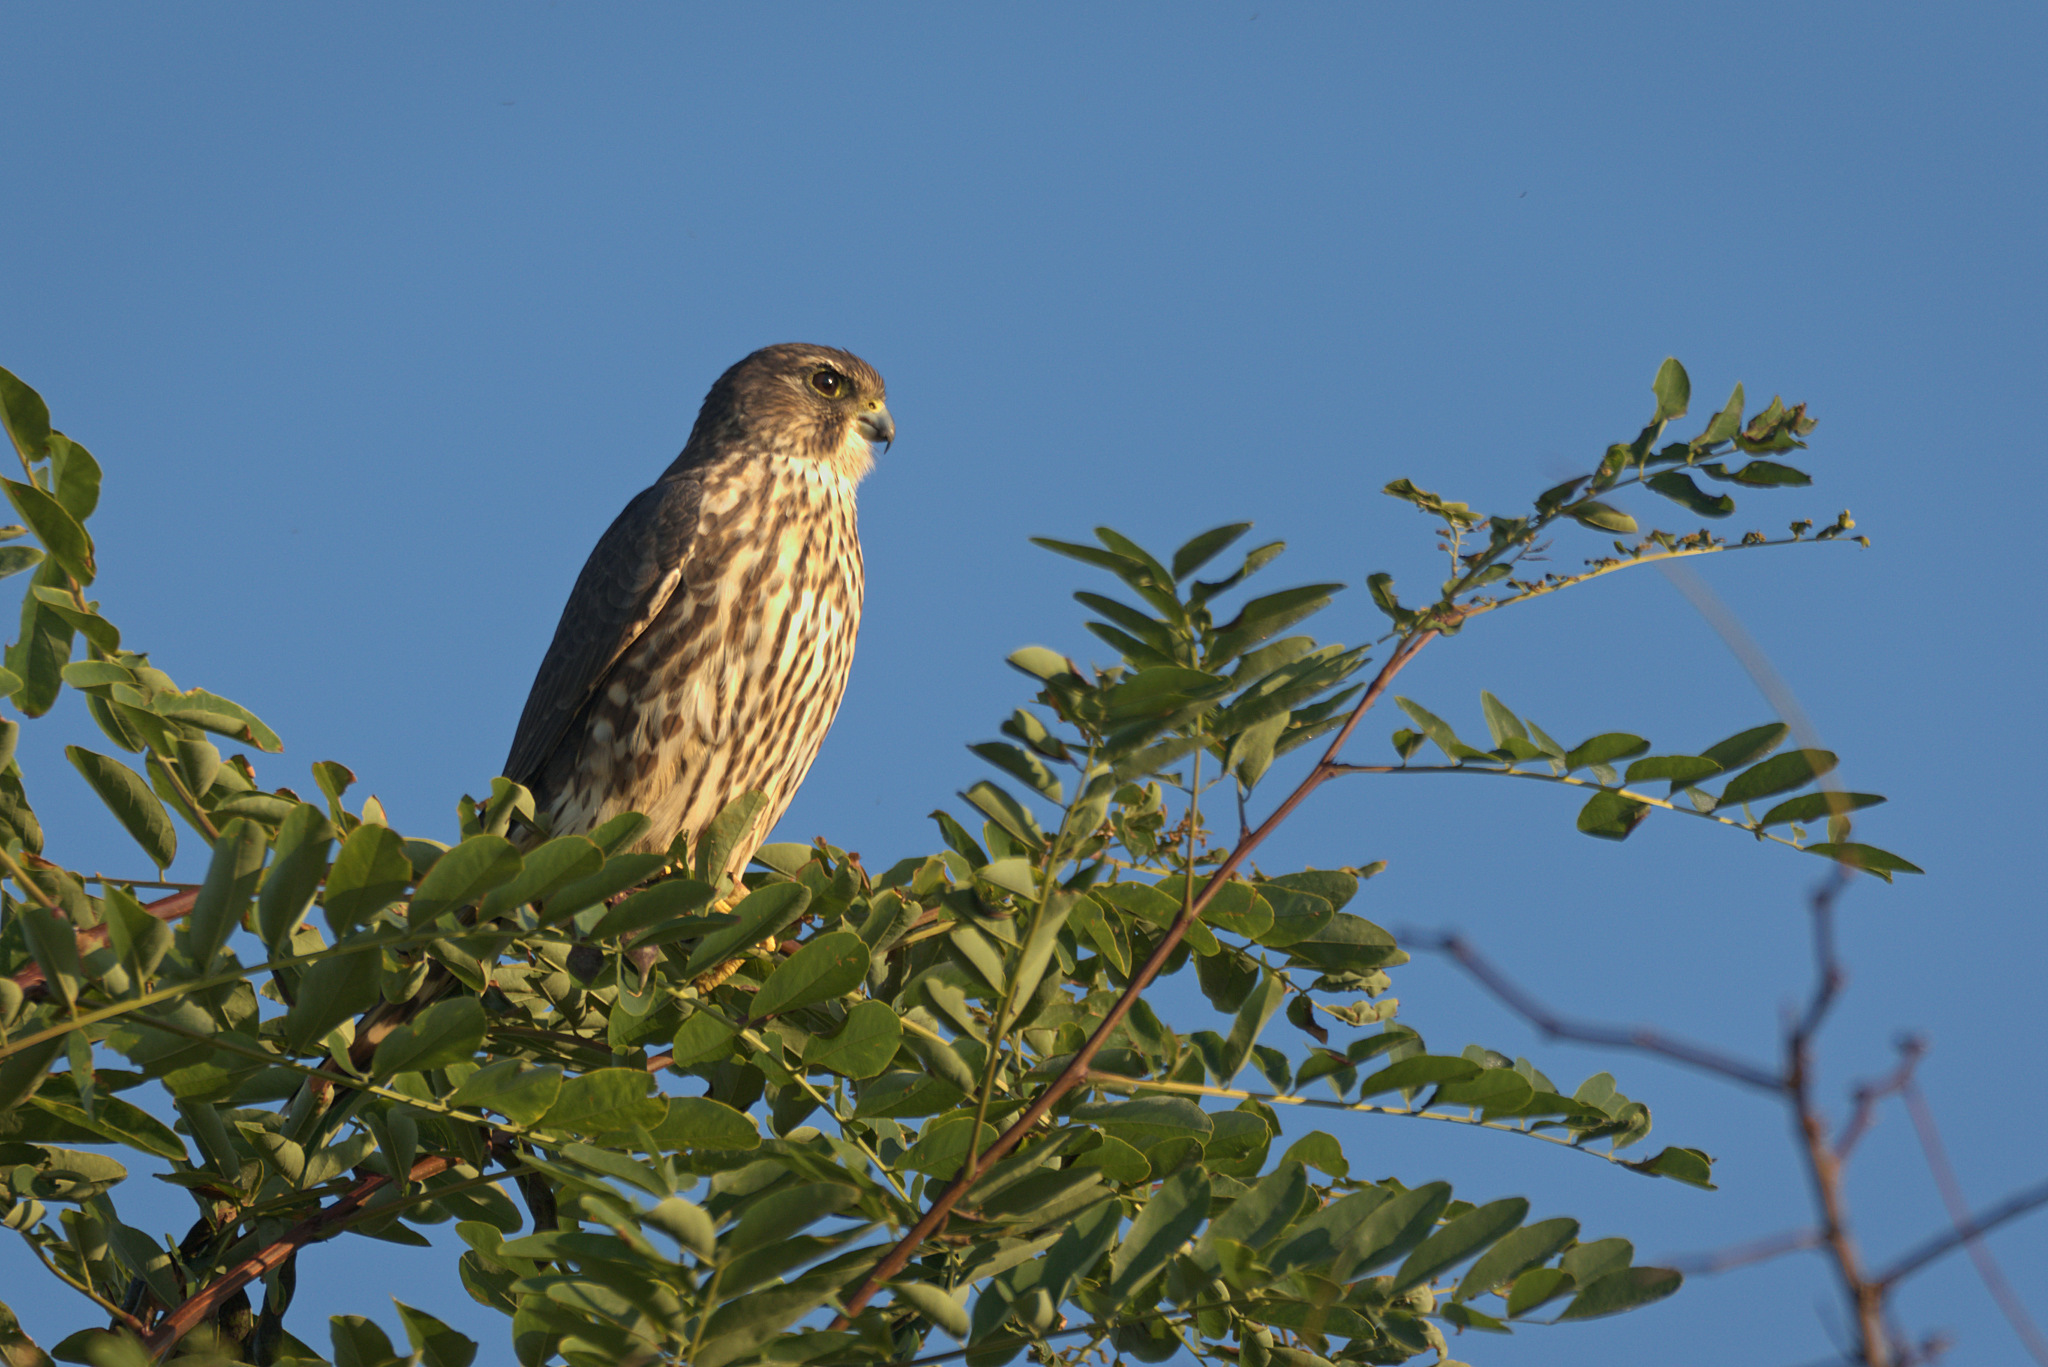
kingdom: Animalia
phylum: Chordata
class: Aves
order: Falconiformes
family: Falconidae
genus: Falco
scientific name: Falco columbarius
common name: Merlin
